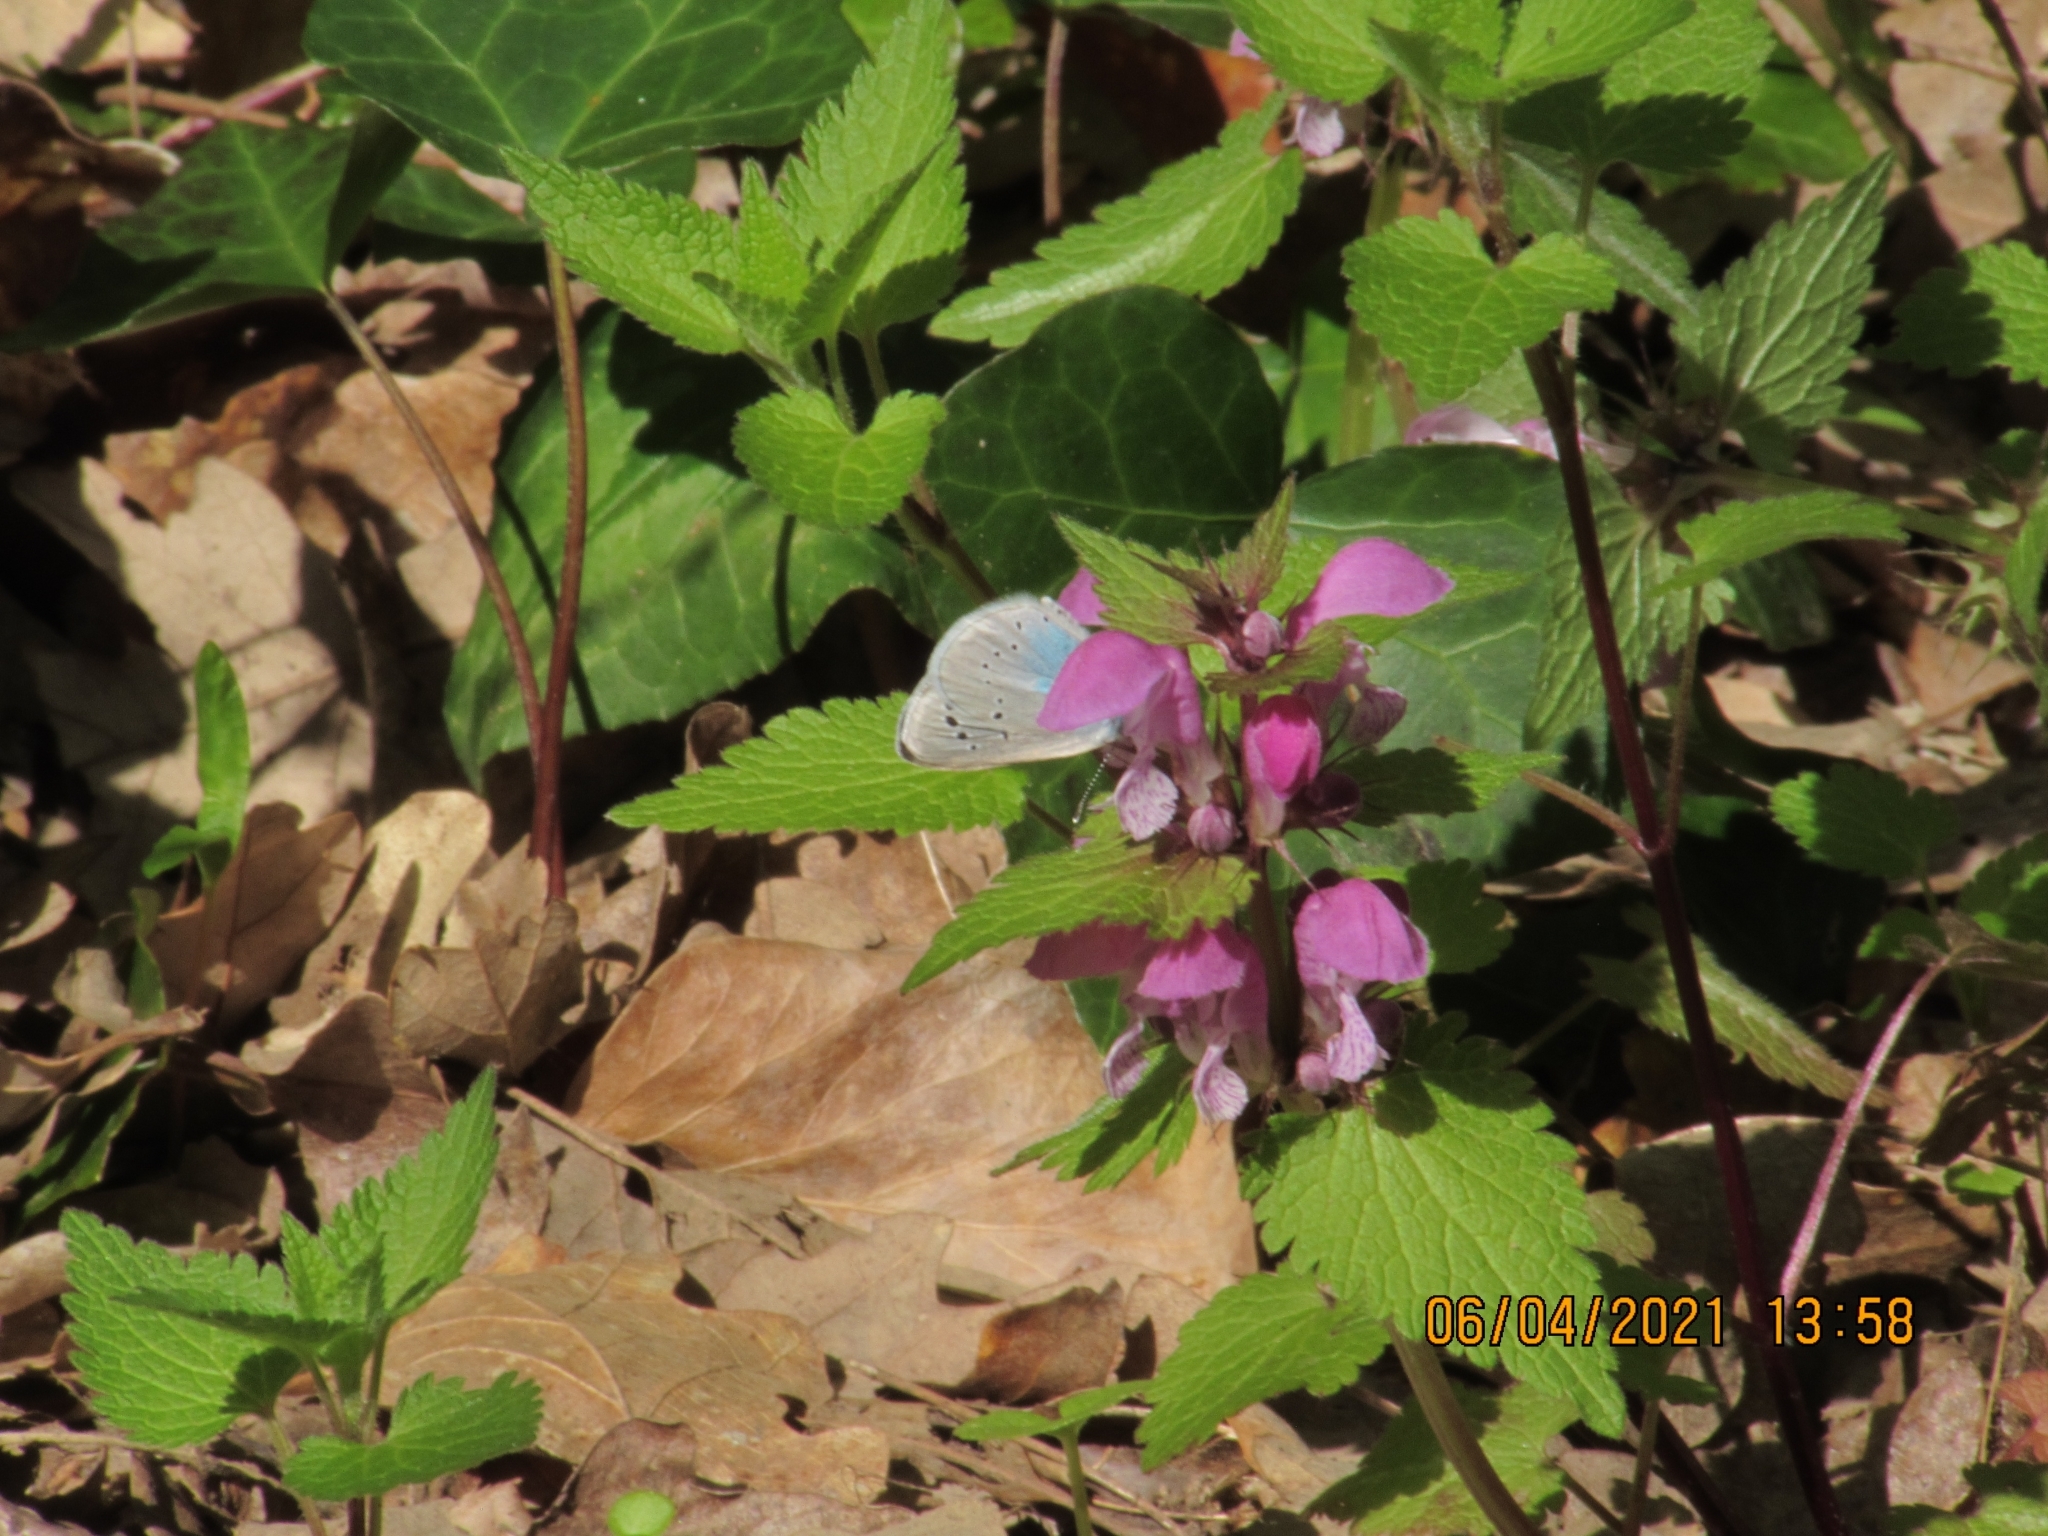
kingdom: Animalia
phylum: Arthropoda
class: Insecta
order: Lepidoptera
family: Lycaenidae
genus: Glaucopsyche
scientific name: Glaucopsyche alexis
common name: Green-underside blue
